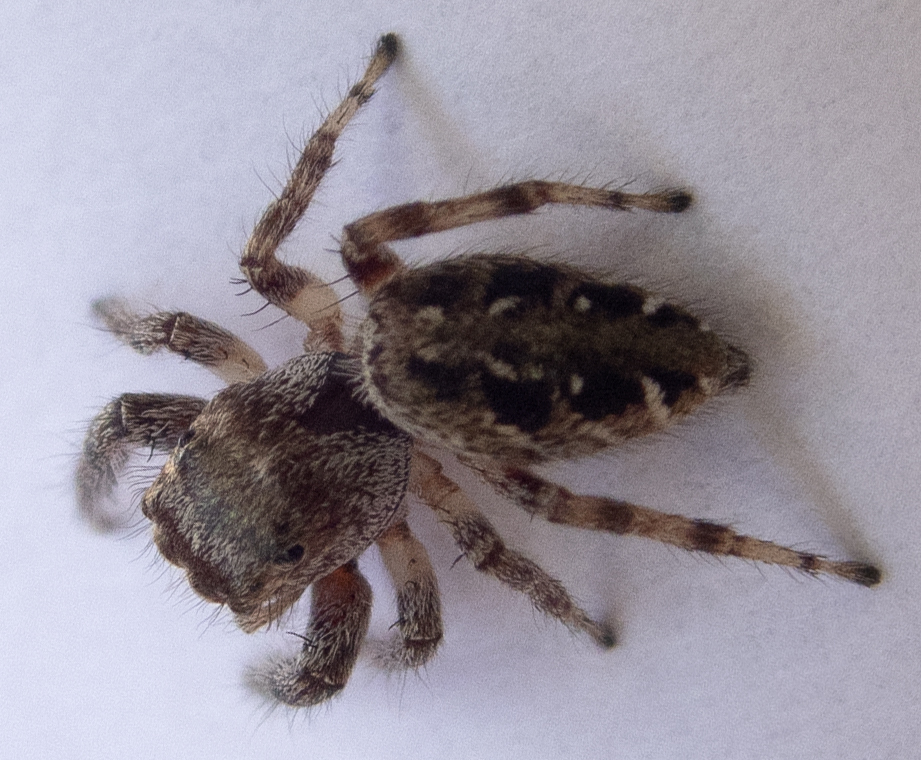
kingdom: Animalia
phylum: Arthropoda
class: Arachnida
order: Araneae
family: Salticidae
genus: Eris
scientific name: Eris militaris
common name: Bronze jumper
